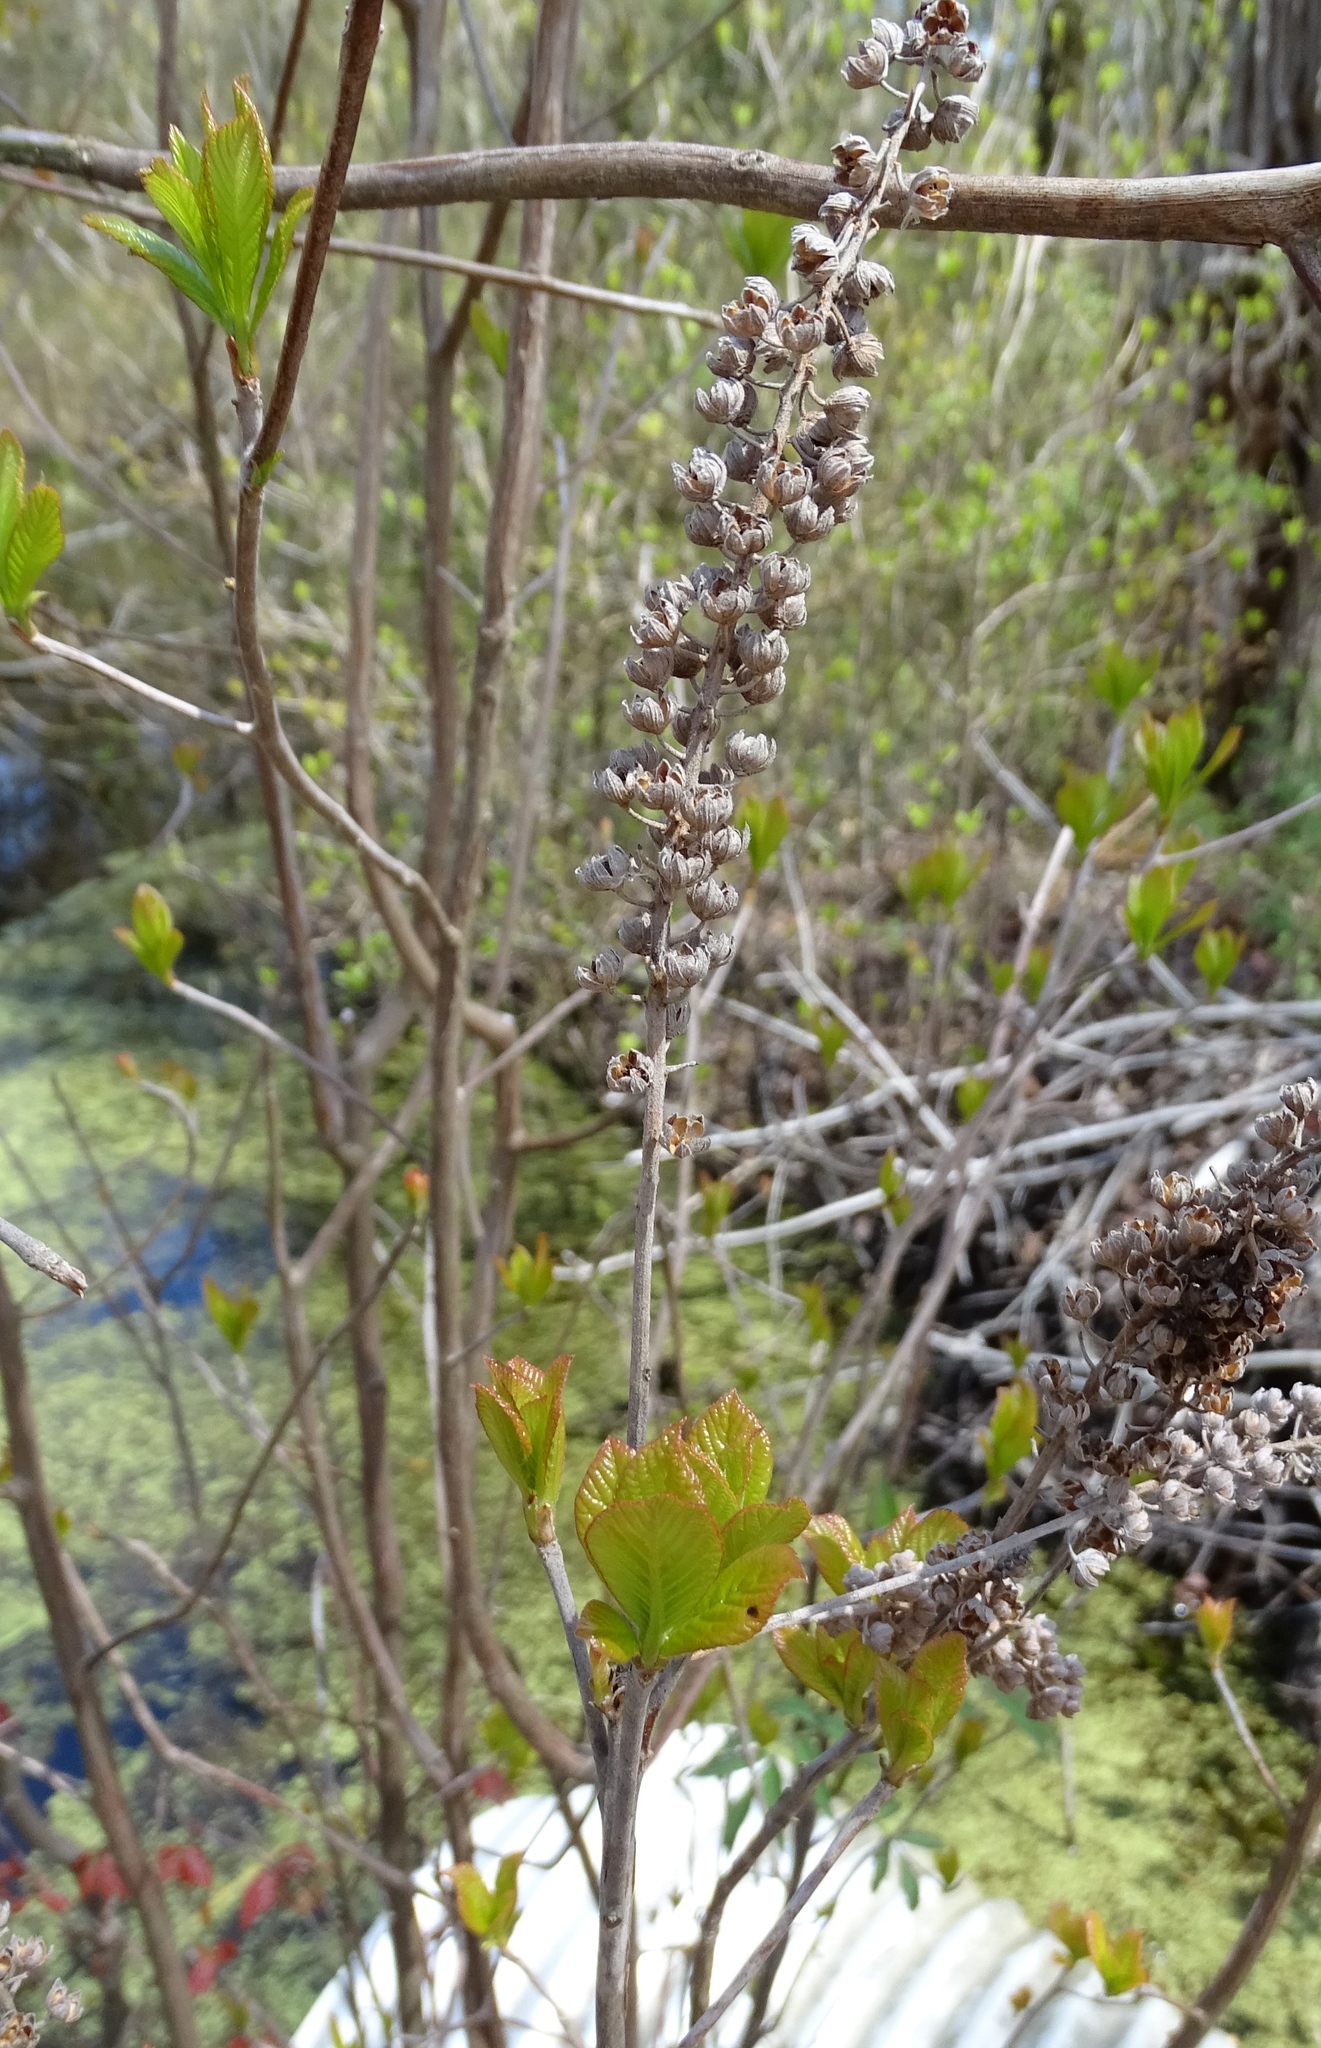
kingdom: Plantae
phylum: Tracheophyta
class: Magnoliopsida
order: Ericales
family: Clethraceae
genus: Clethra
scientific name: Clethra alnifolia
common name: Sweet pepperbush
